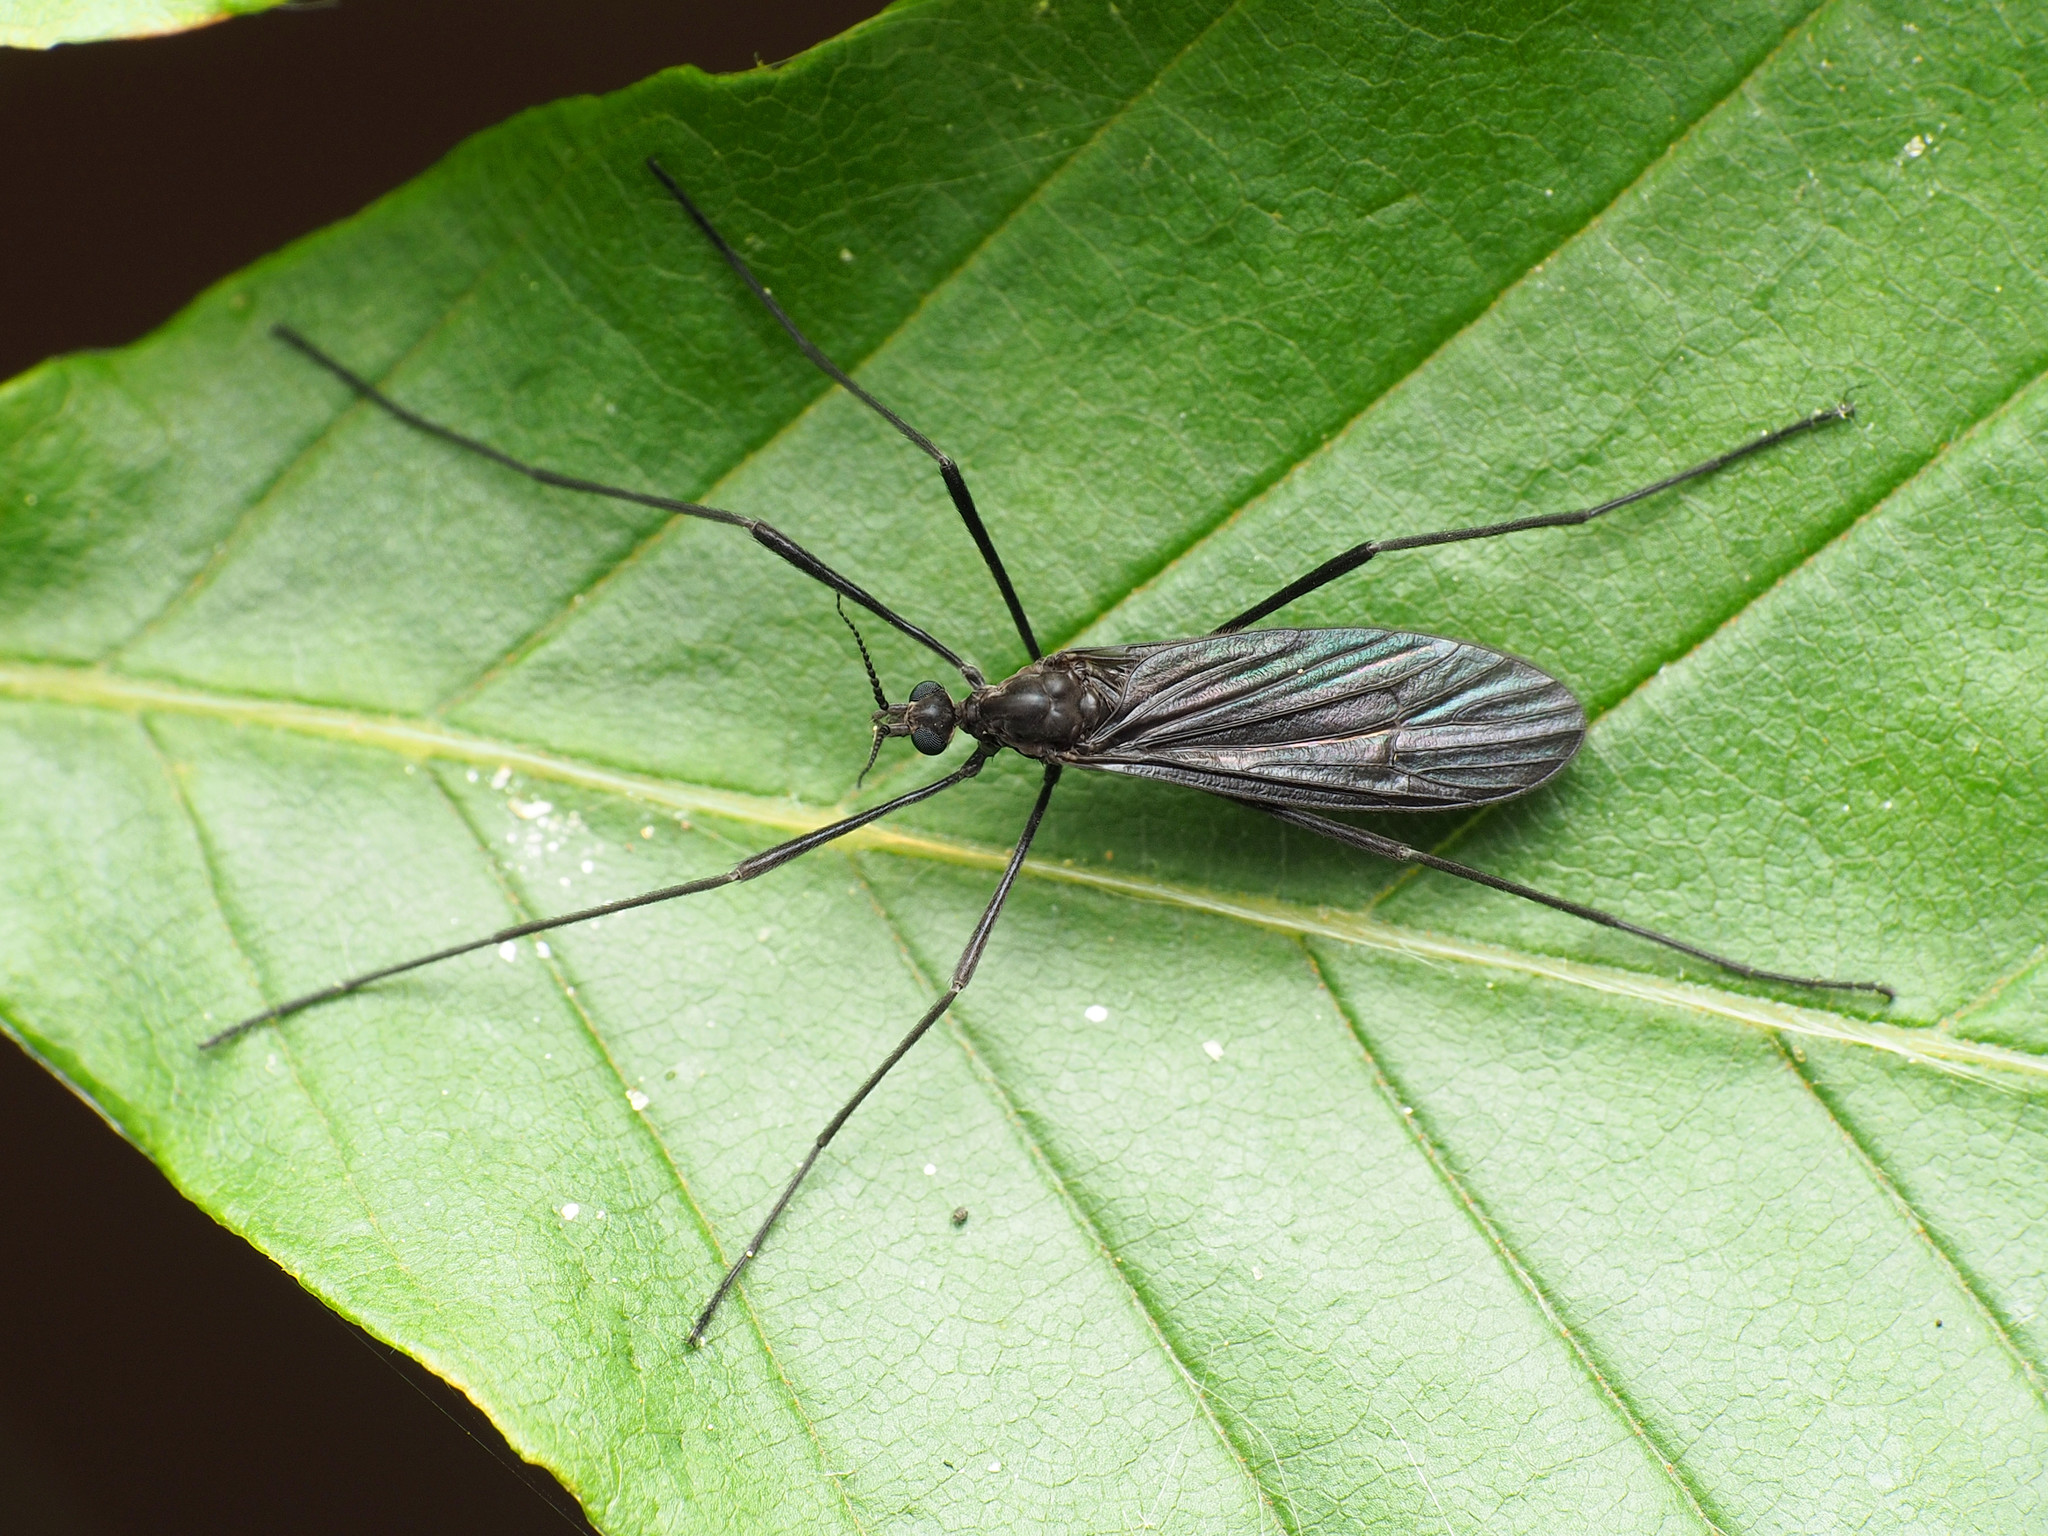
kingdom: Animalia
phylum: Arthropoda
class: Insecta
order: Diptera
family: Limoniidae
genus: Eugnophomyia
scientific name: Eugnophomyia luctuosa
